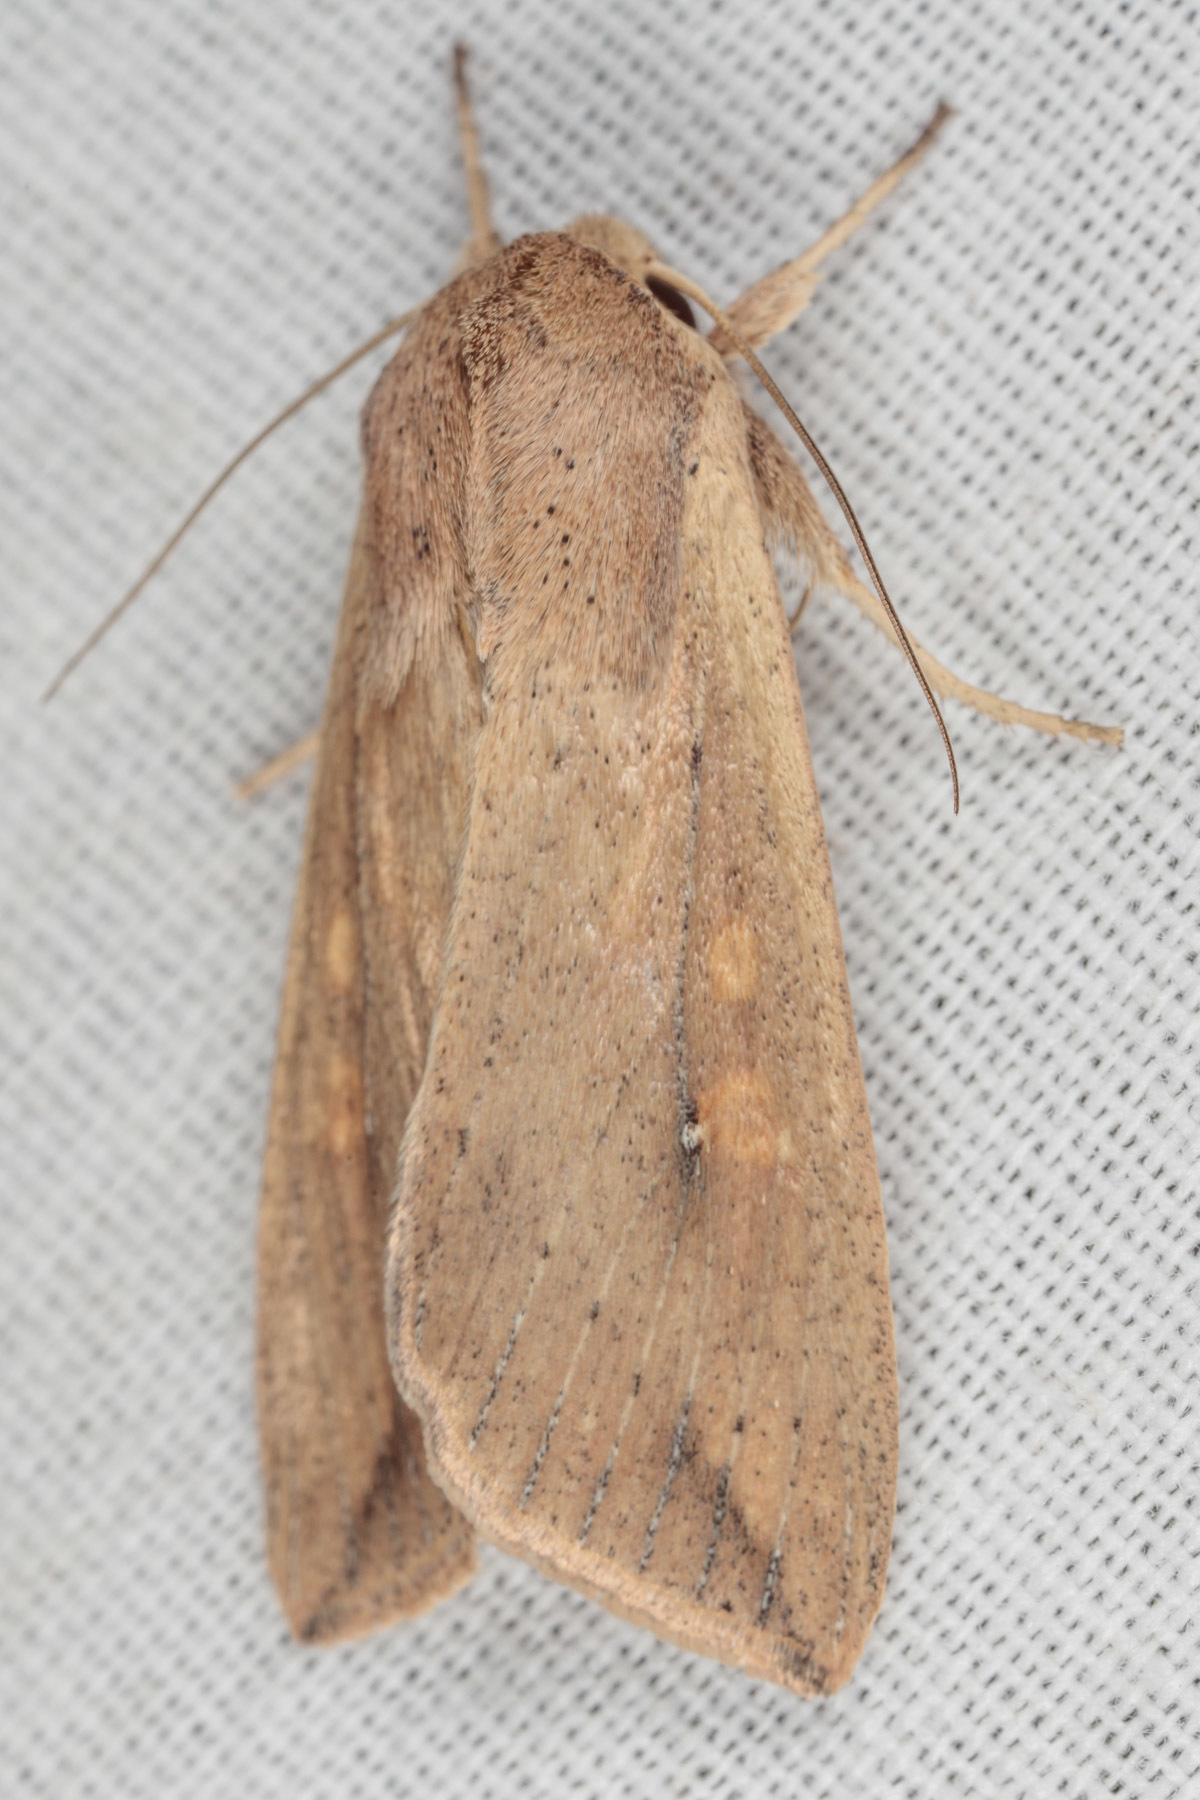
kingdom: Animalia
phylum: Arthropoda
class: Insecta
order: Lepidoptera
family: Noctuidae
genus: Mythimna
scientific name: Mythimna unipuncta
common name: White-speck
